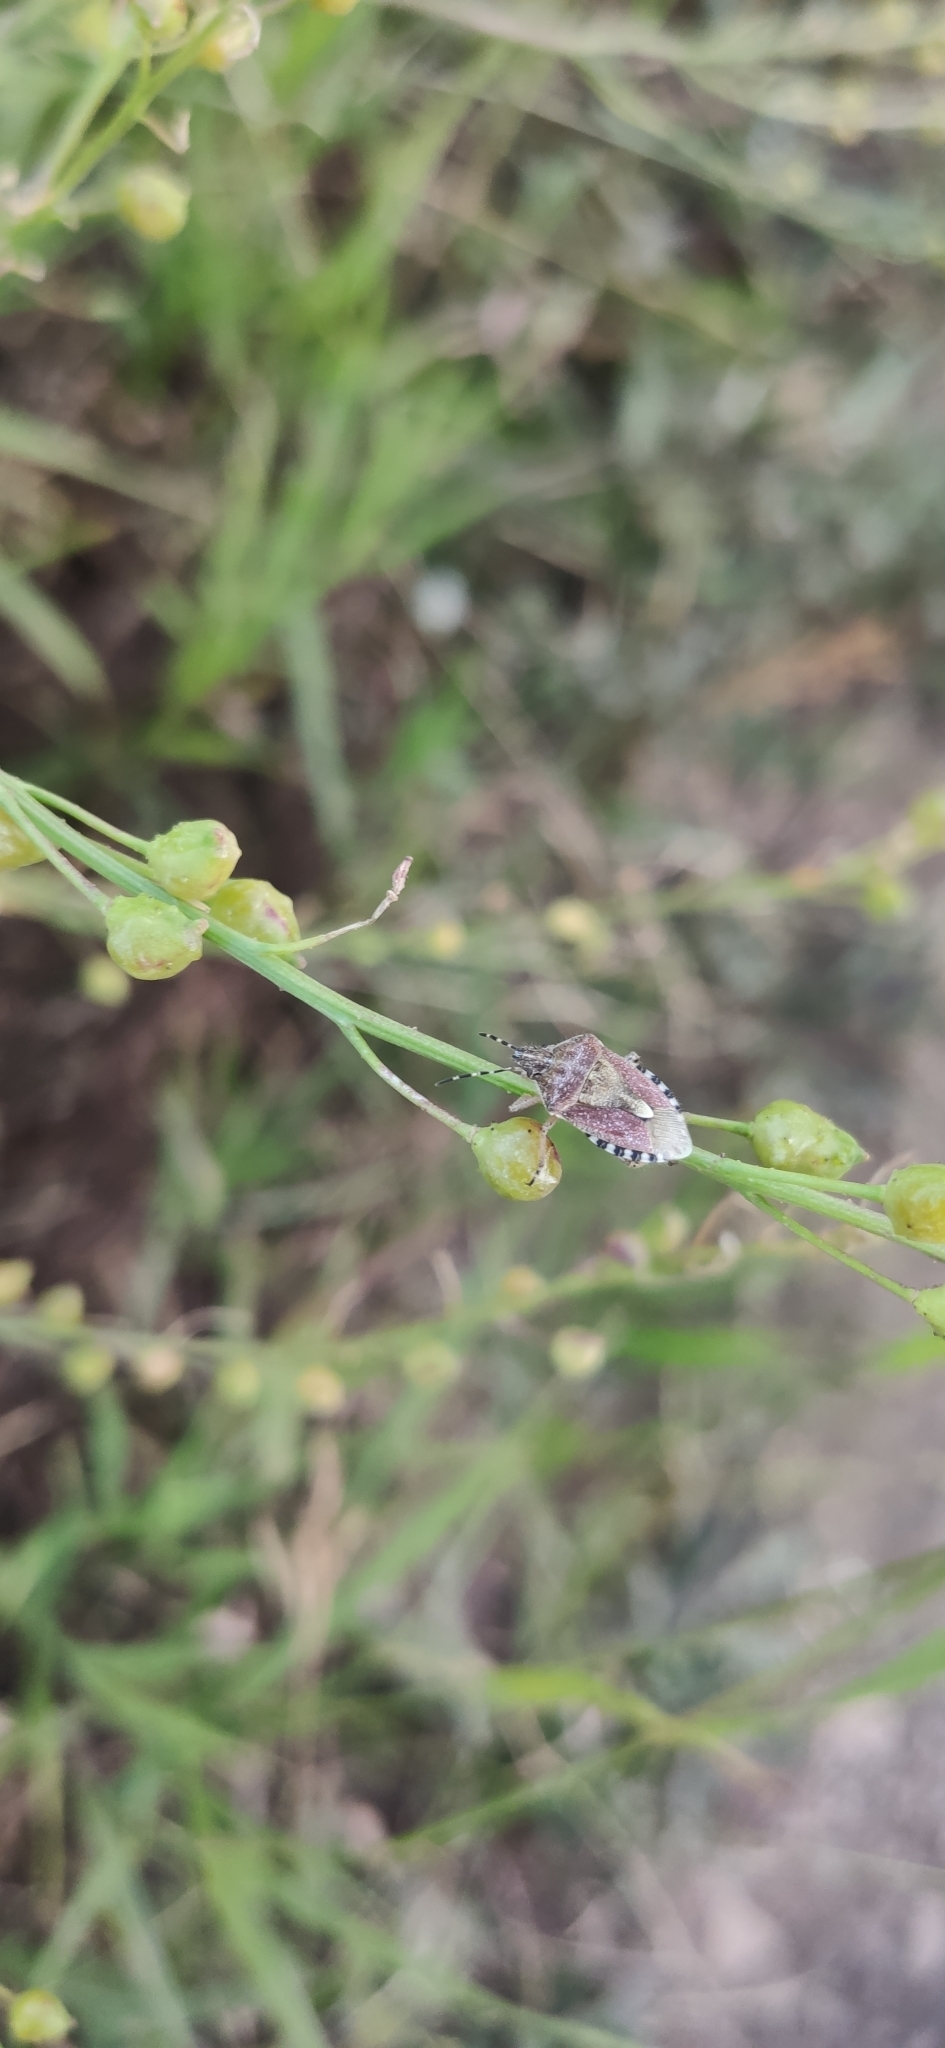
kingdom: Animalia
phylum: Arthropoda
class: Insecta
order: Hemiptera
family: Pentatomidae
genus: Dolycoris
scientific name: Dolycoris baccarum
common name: Sloe bug
